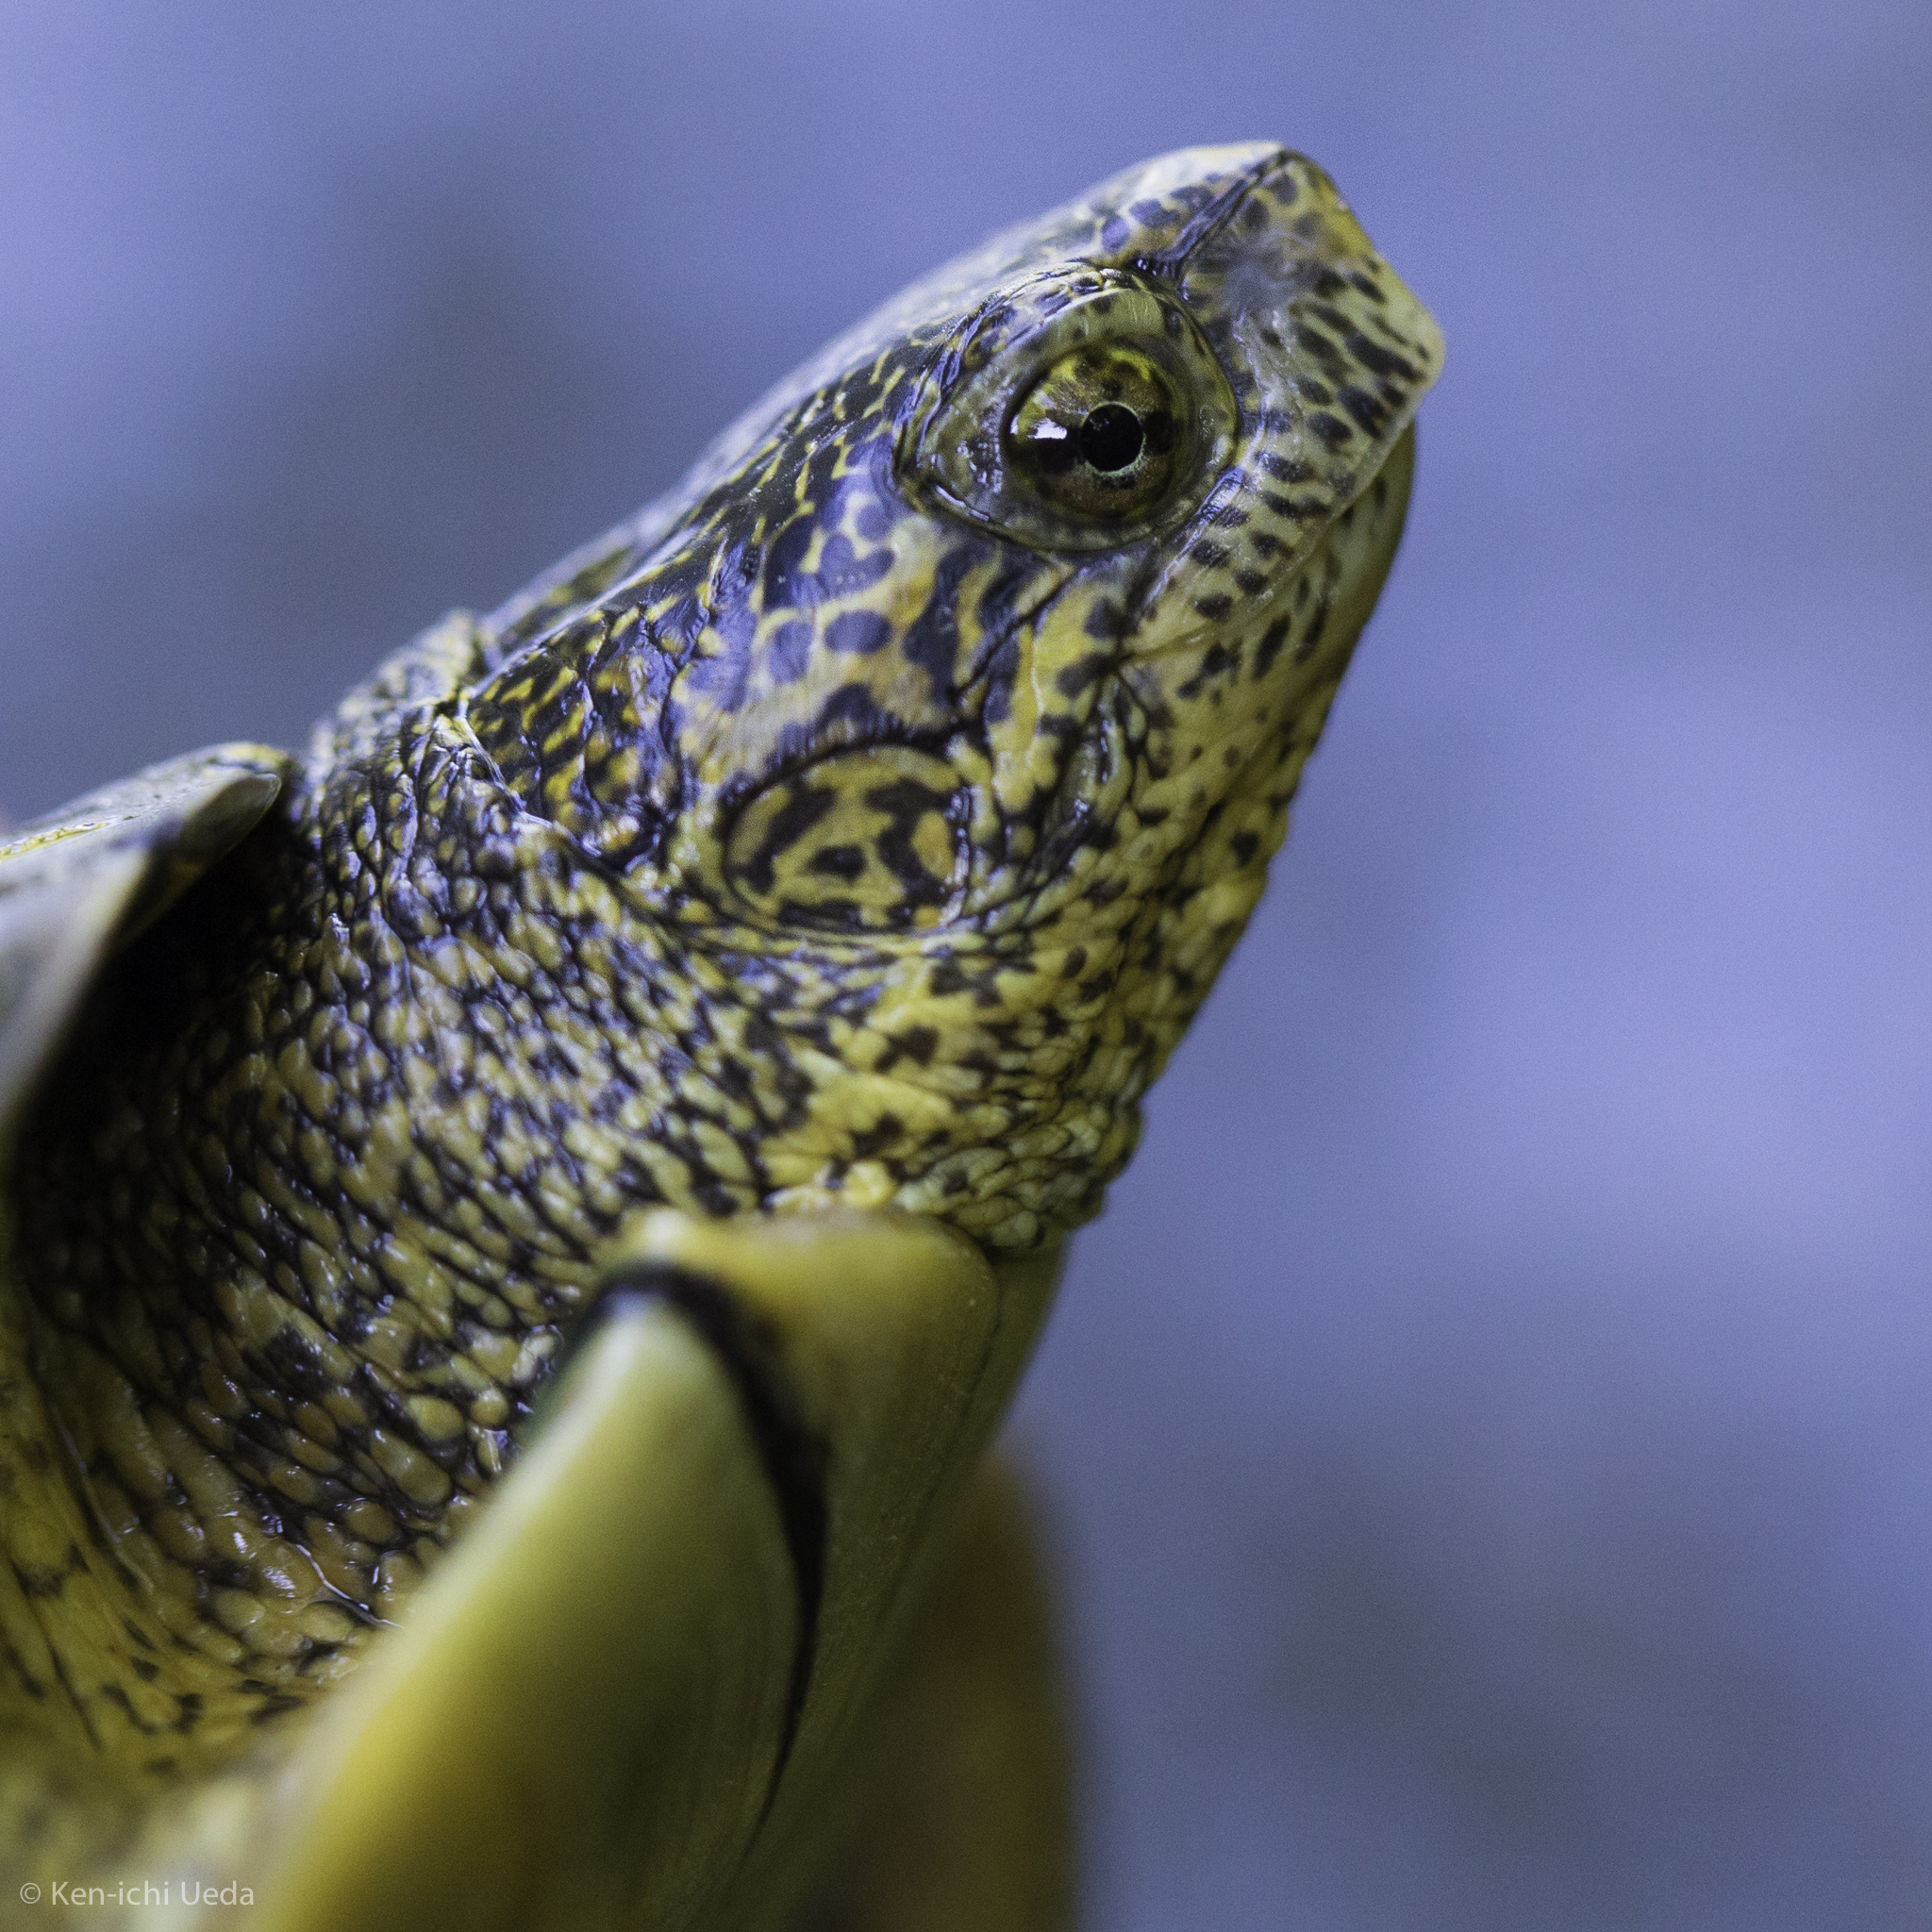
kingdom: Animalia
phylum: Chordata
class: Testudines
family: Emydidae
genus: Actinemys
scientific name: Actinemys marmorata
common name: Western pond turtle
